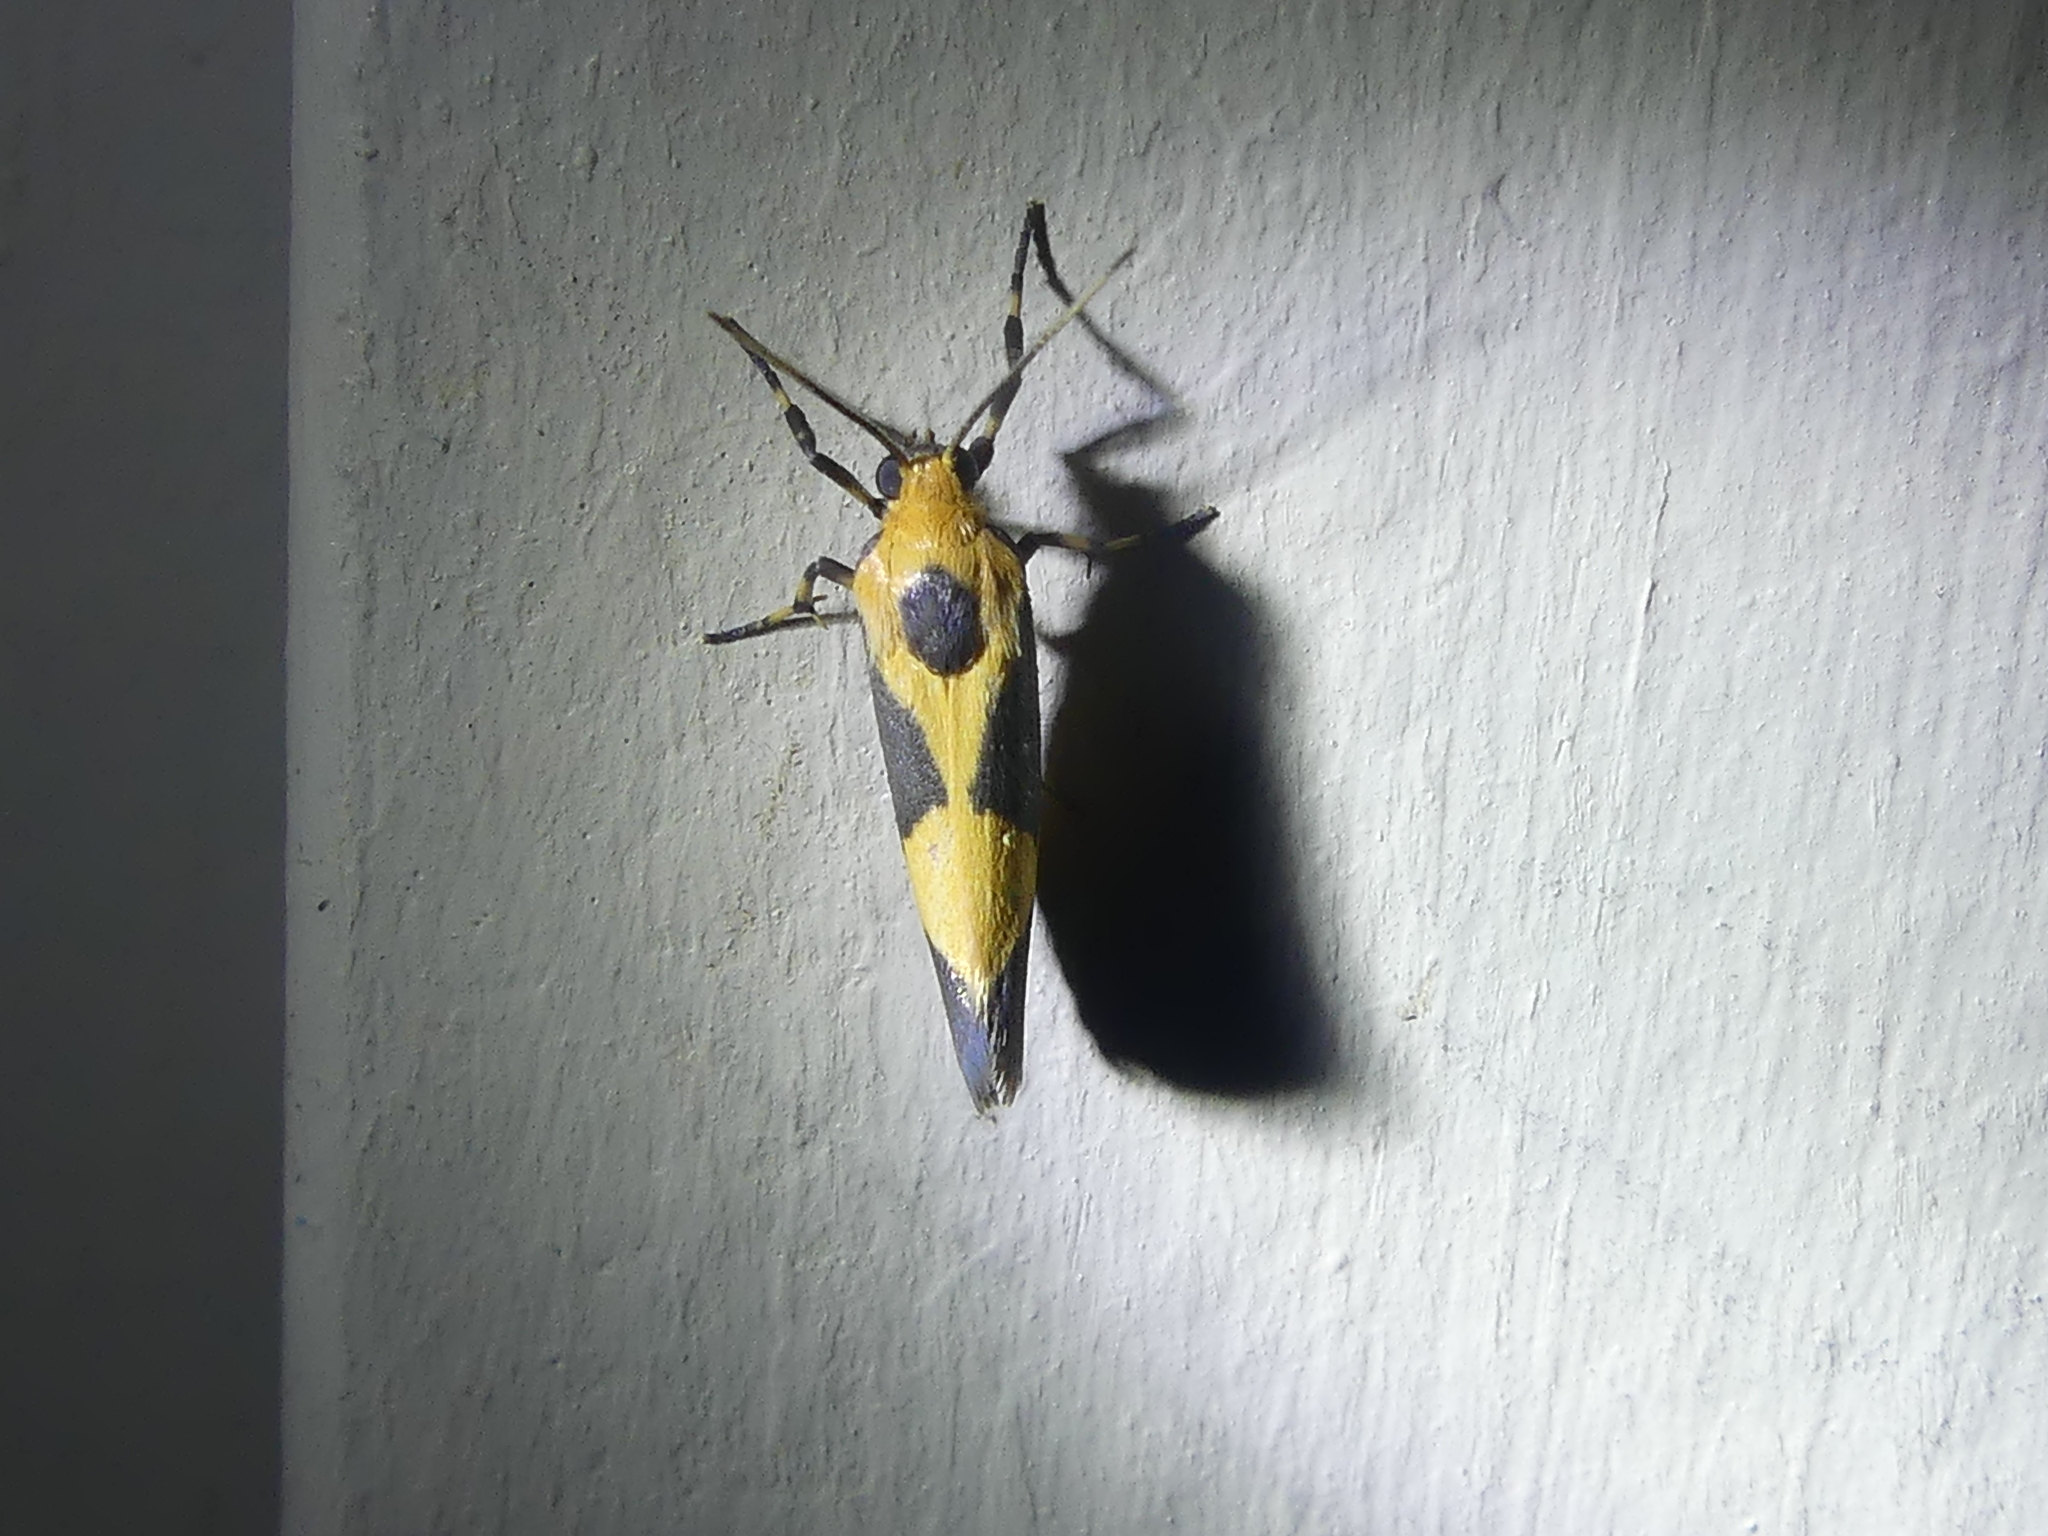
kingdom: Animalia
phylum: Arthropoda
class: Insecta
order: Lepidoptera
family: Erebidae
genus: Cisthene
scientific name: Cisthene unifascia
